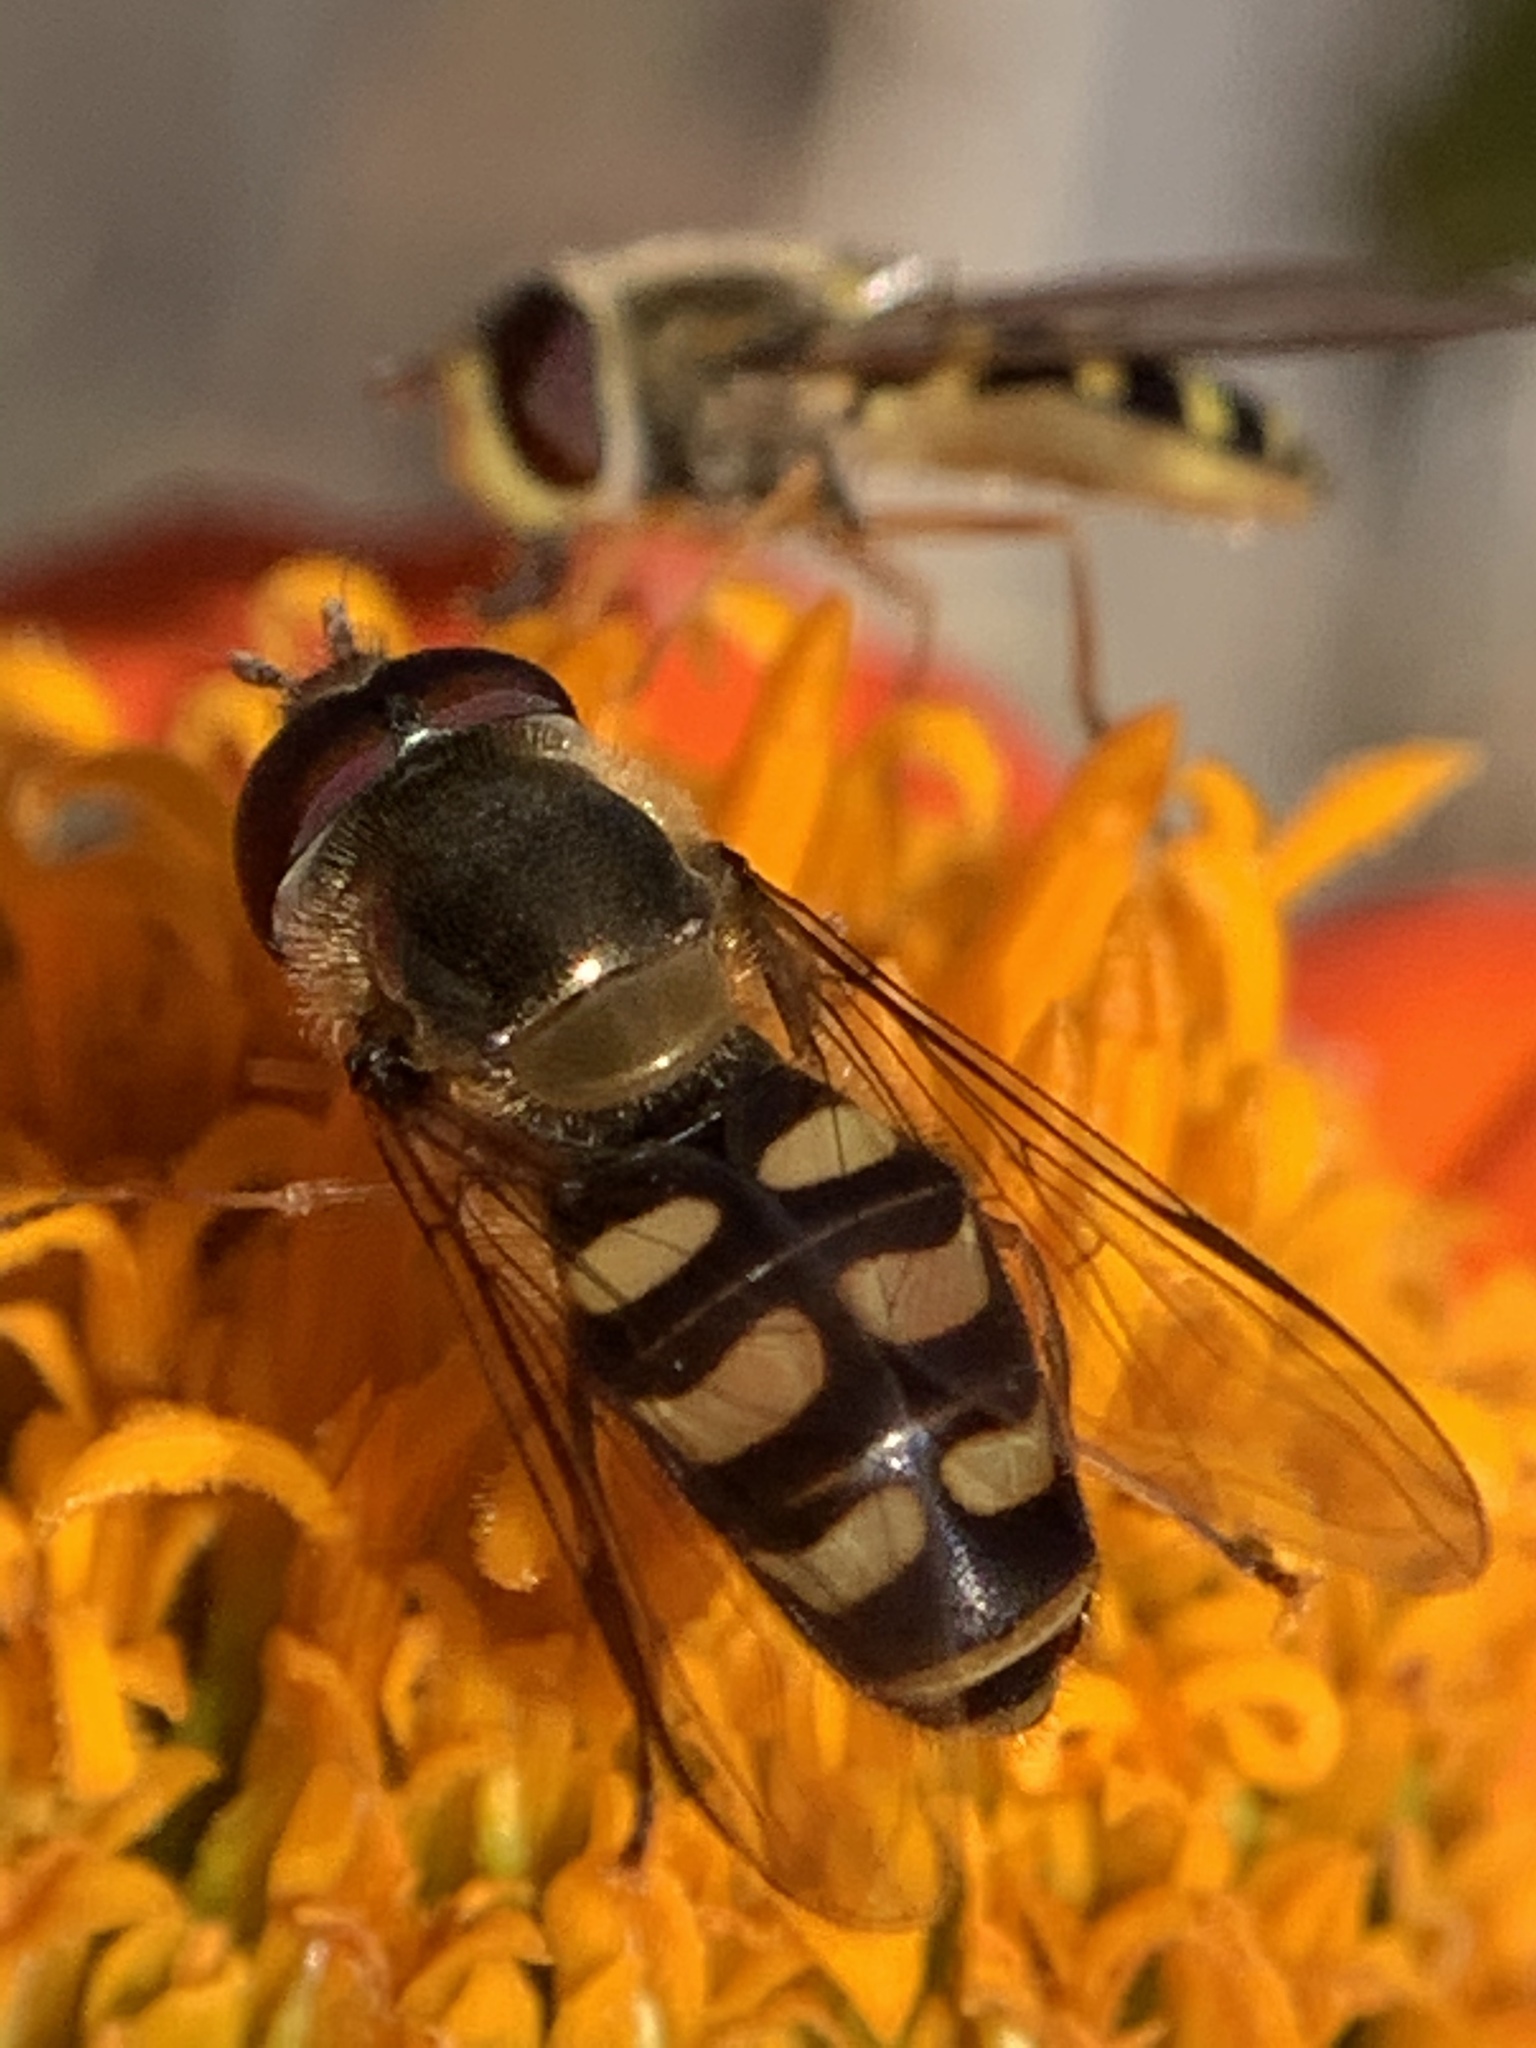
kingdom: Animalia
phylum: Arthropoda
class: Insecta
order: Diptera
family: Syrphidae
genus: Lapposyrphus
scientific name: Lapposyrphus lapponicus
